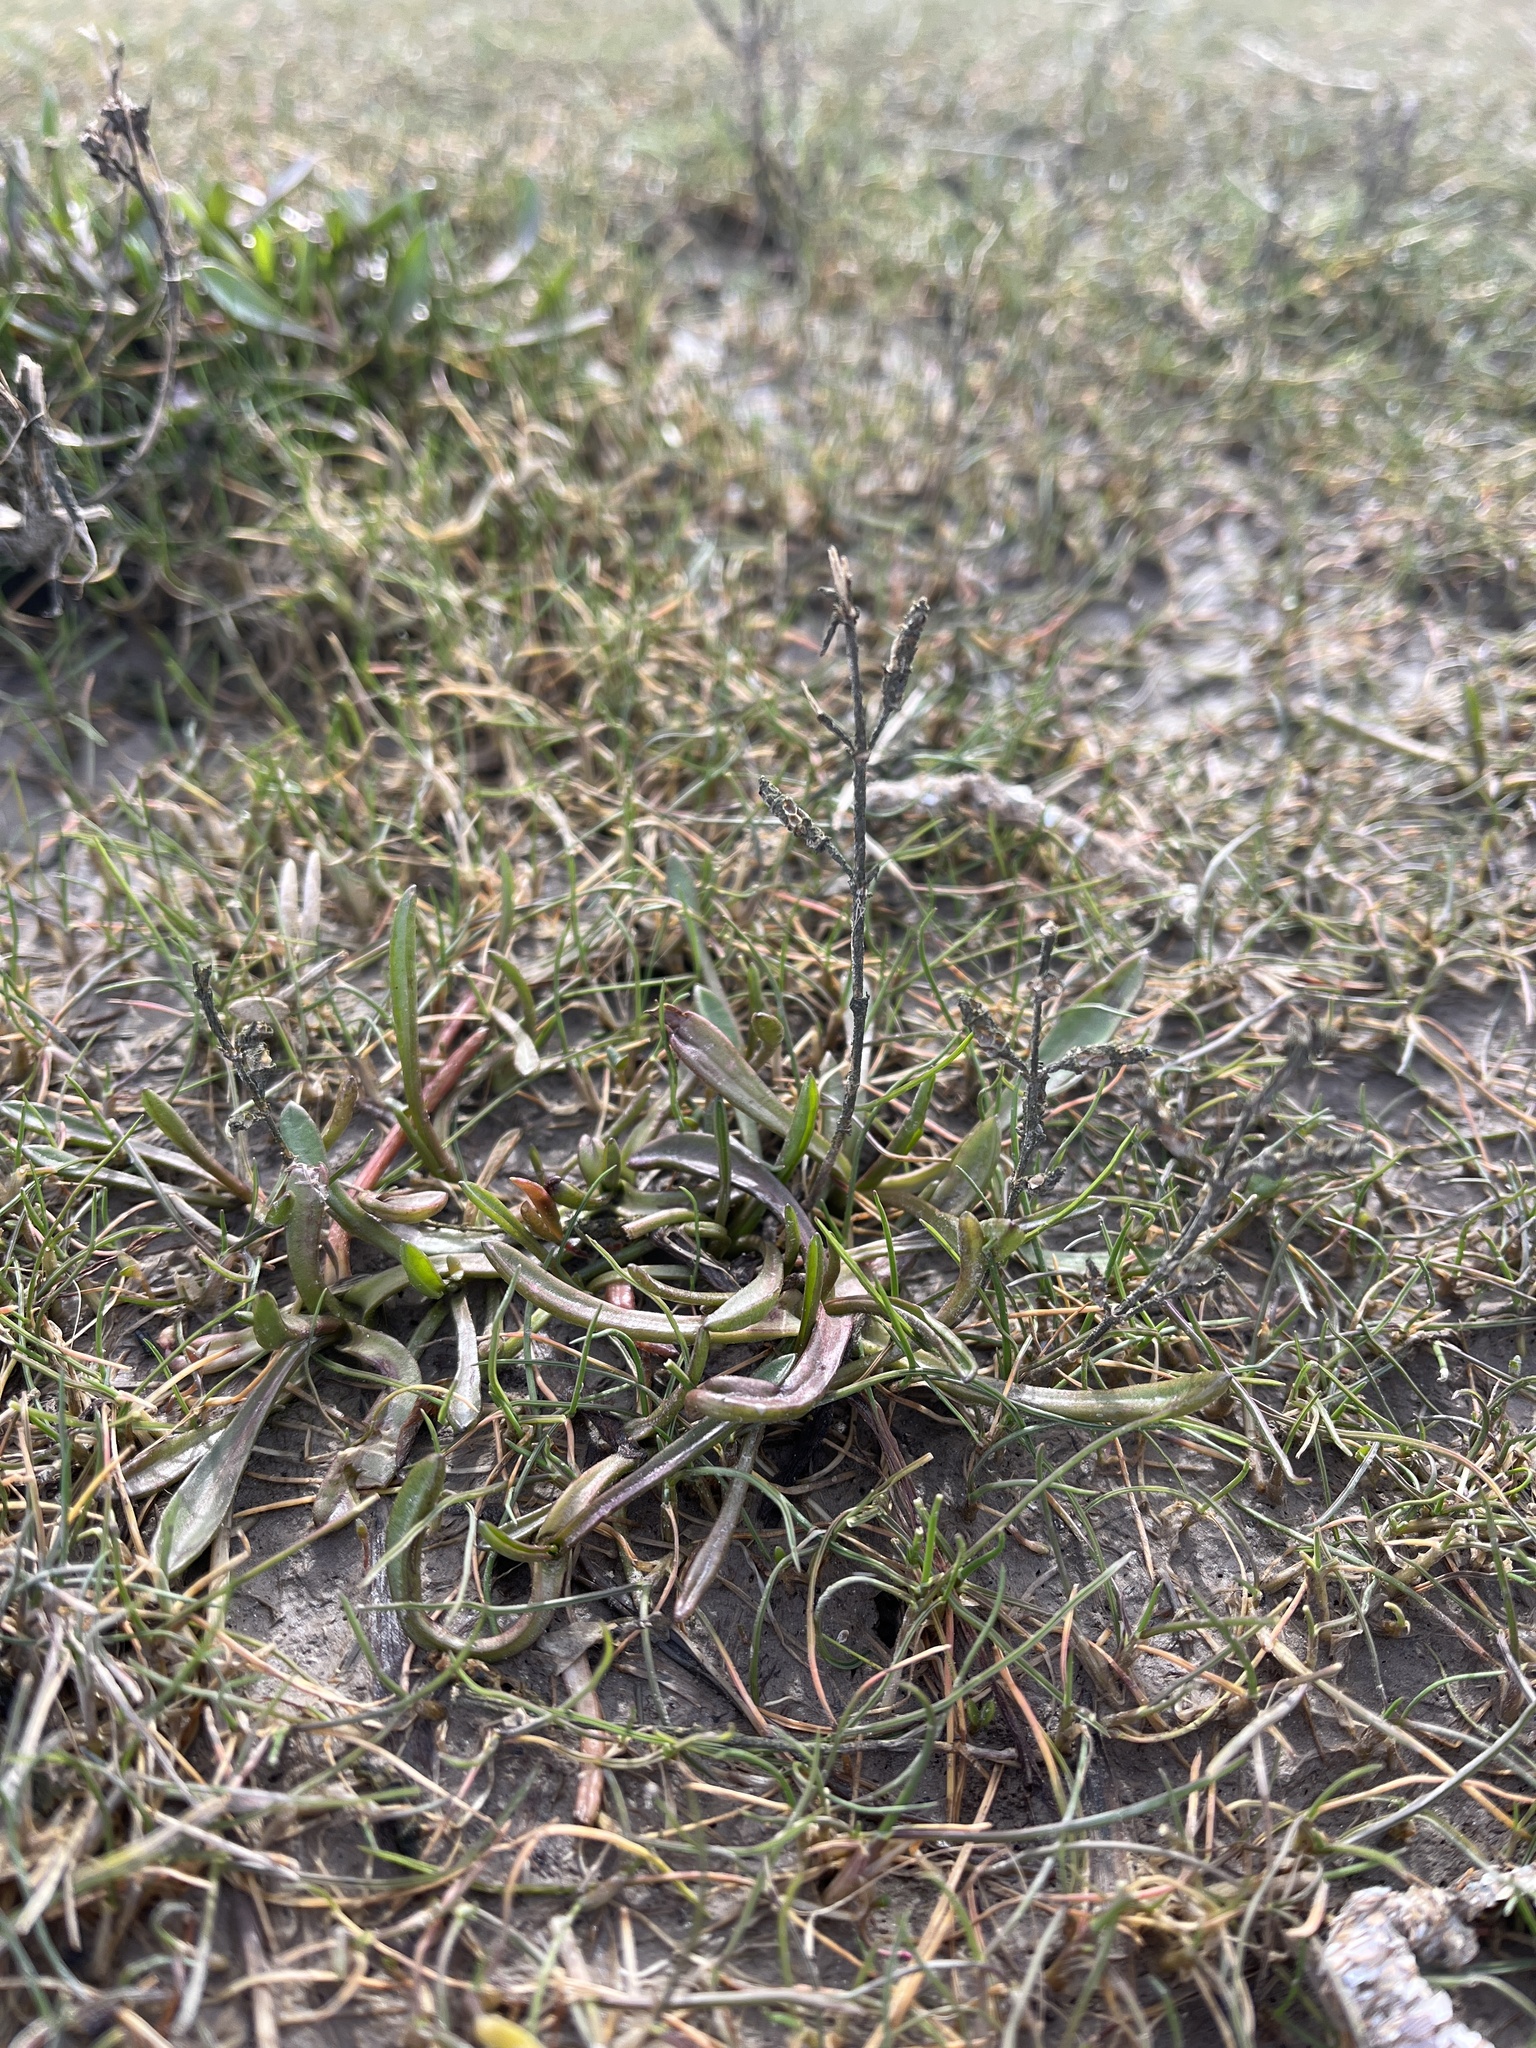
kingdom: Plantae
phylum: Tracheophyta
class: Magnoliopsida
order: Asterales
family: Asteraceae
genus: Tripolium
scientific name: Tripolium pannonicum
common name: Sea aster
